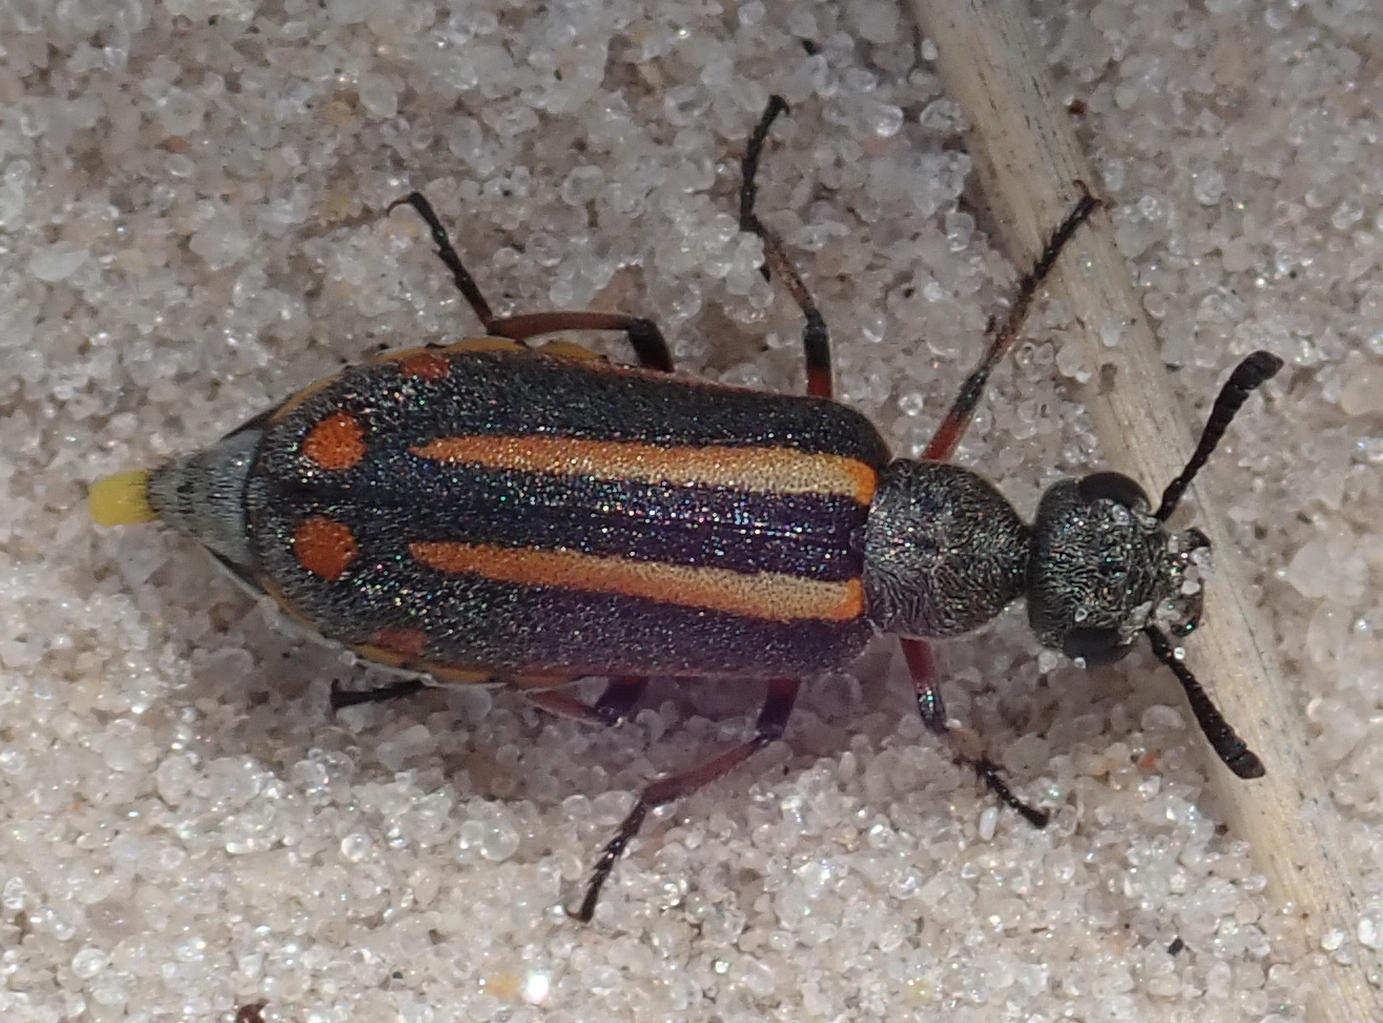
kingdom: Animalia
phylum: Arthropoda
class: Insecta
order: Coleoptera
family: Meloidae
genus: Ceroctis
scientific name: Ceroctis angolensis
